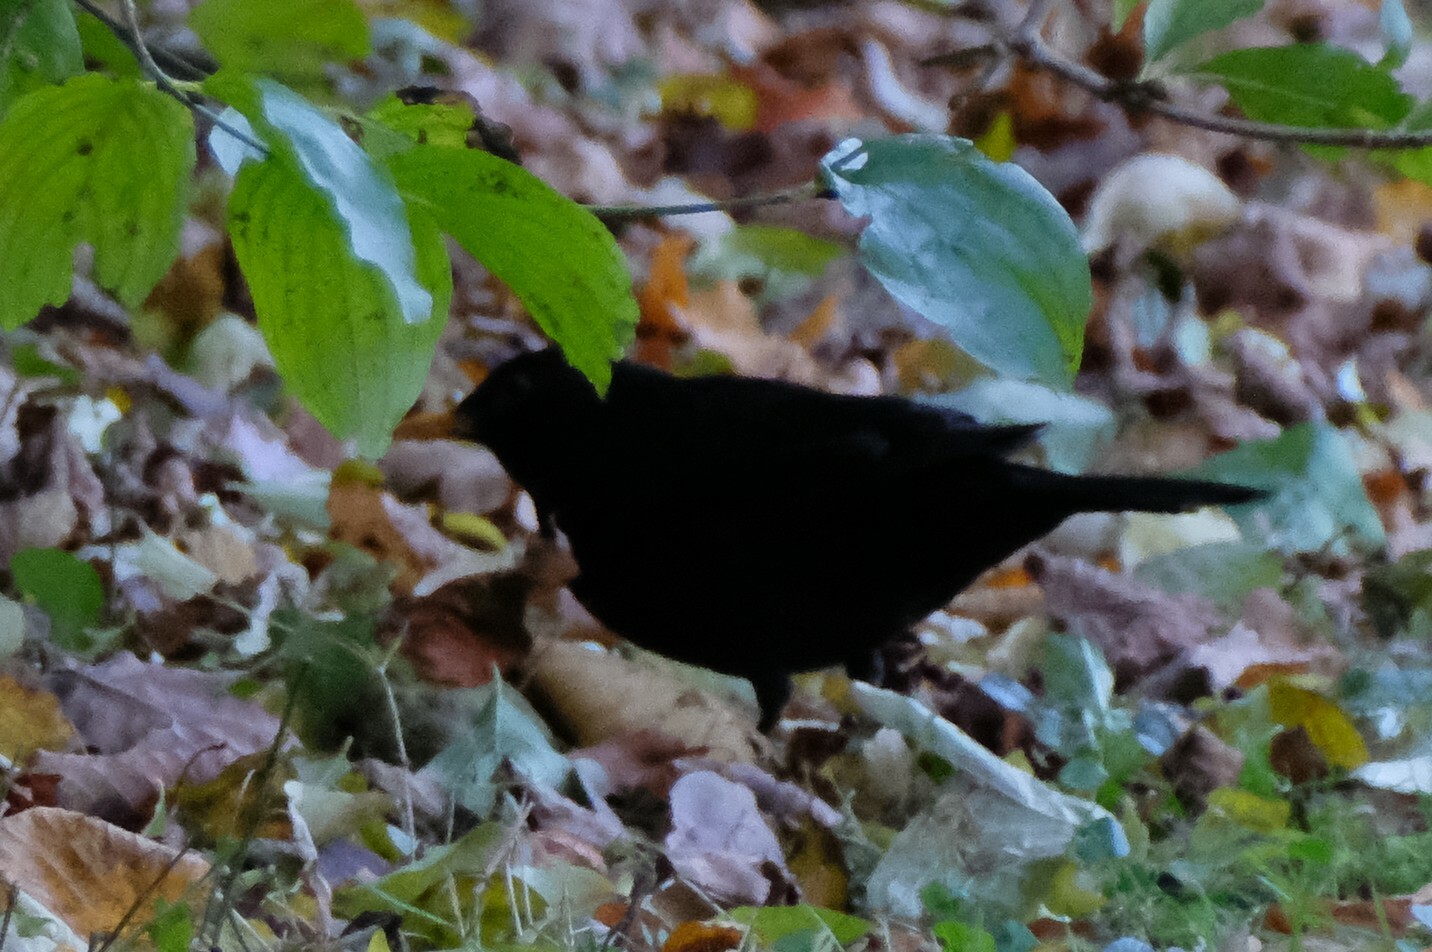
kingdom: Animalia
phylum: Chordata
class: Aves
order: Passeriformes
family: Turdidae
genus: Turdus
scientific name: Turdus merula
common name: Common blackbird
